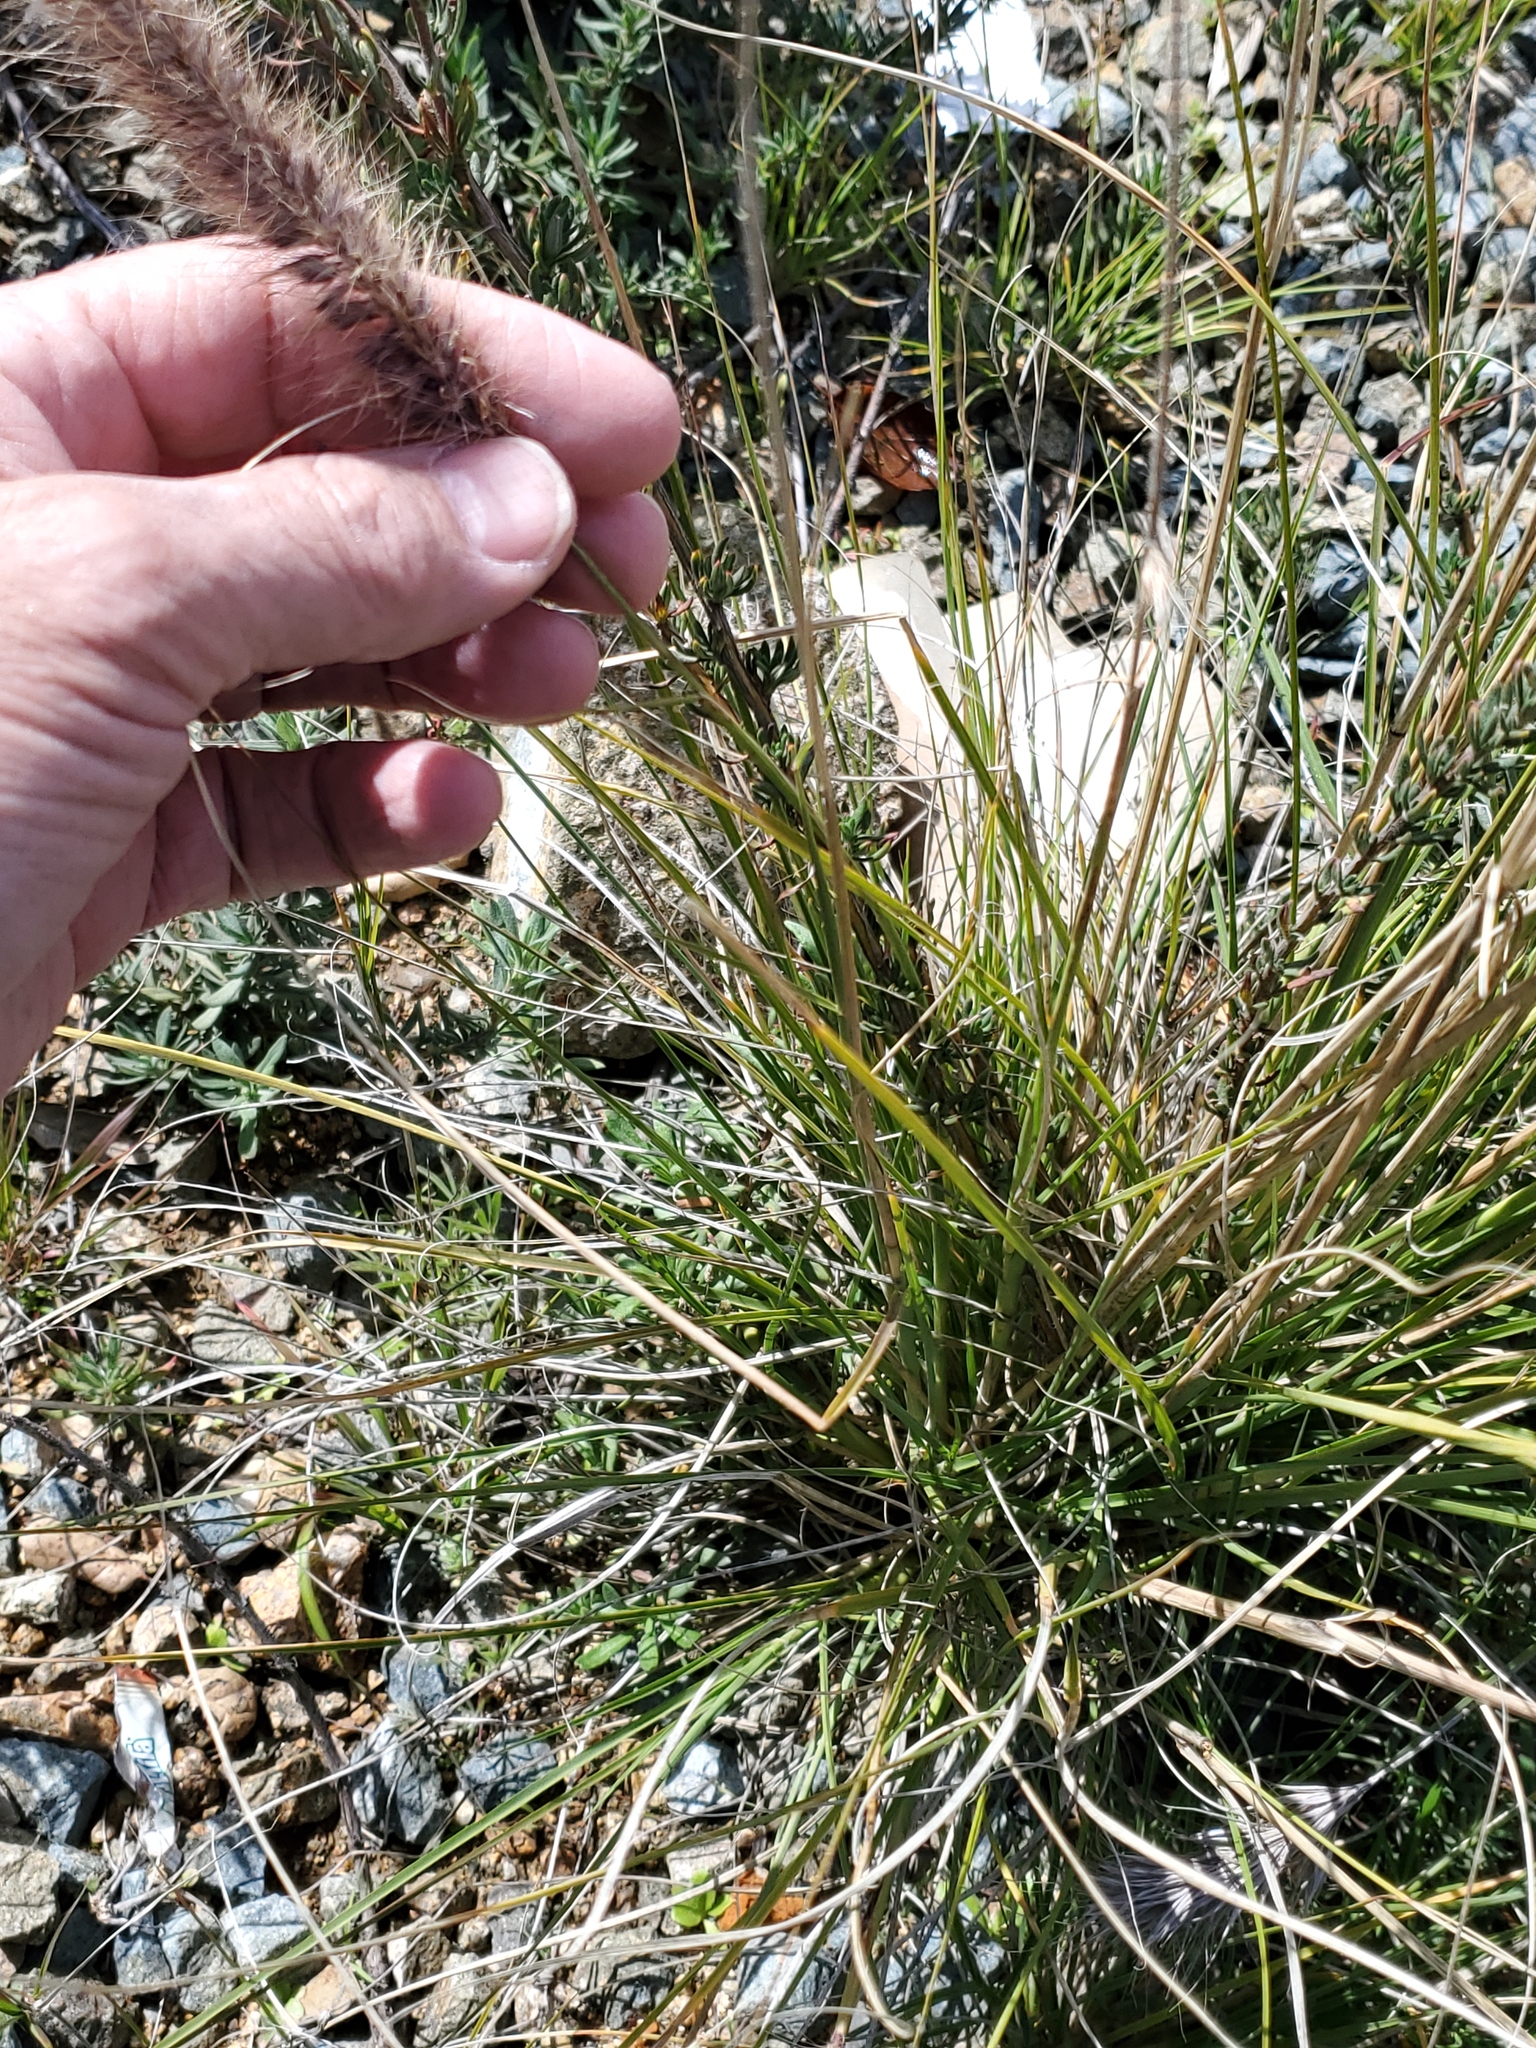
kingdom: Plantae
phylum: Tracheophyta
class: Liliopsida
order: Poales
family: Poaceae
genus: Cenchrus
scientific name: Cenchrus setaceus
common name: Crimson fountaingrass
